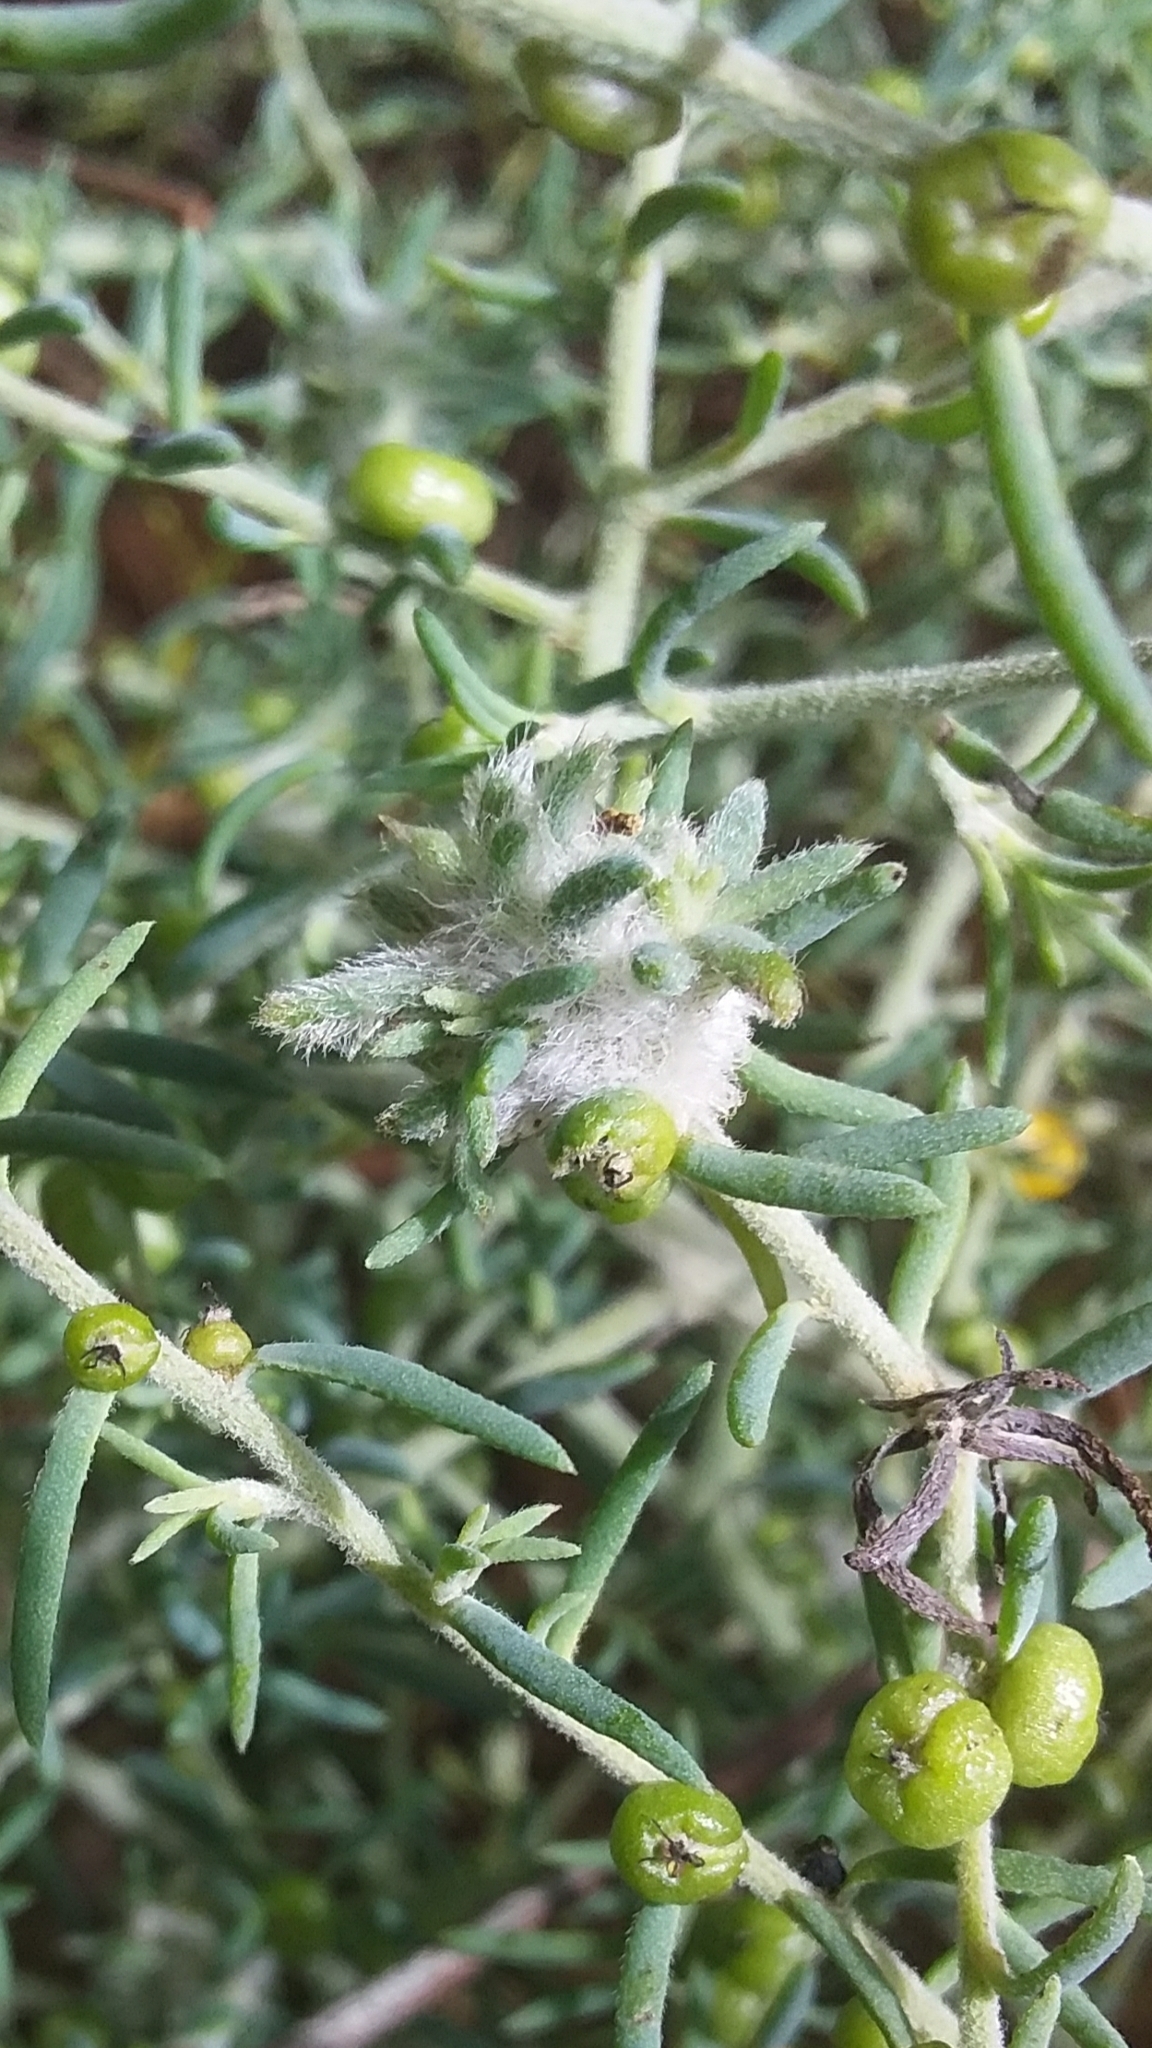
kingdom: Animalia
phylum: Arthropoda
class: Insecta
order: Diptera
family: Cecidomyiidae
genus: Asphondylia
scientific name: Asphondylia tonsura
